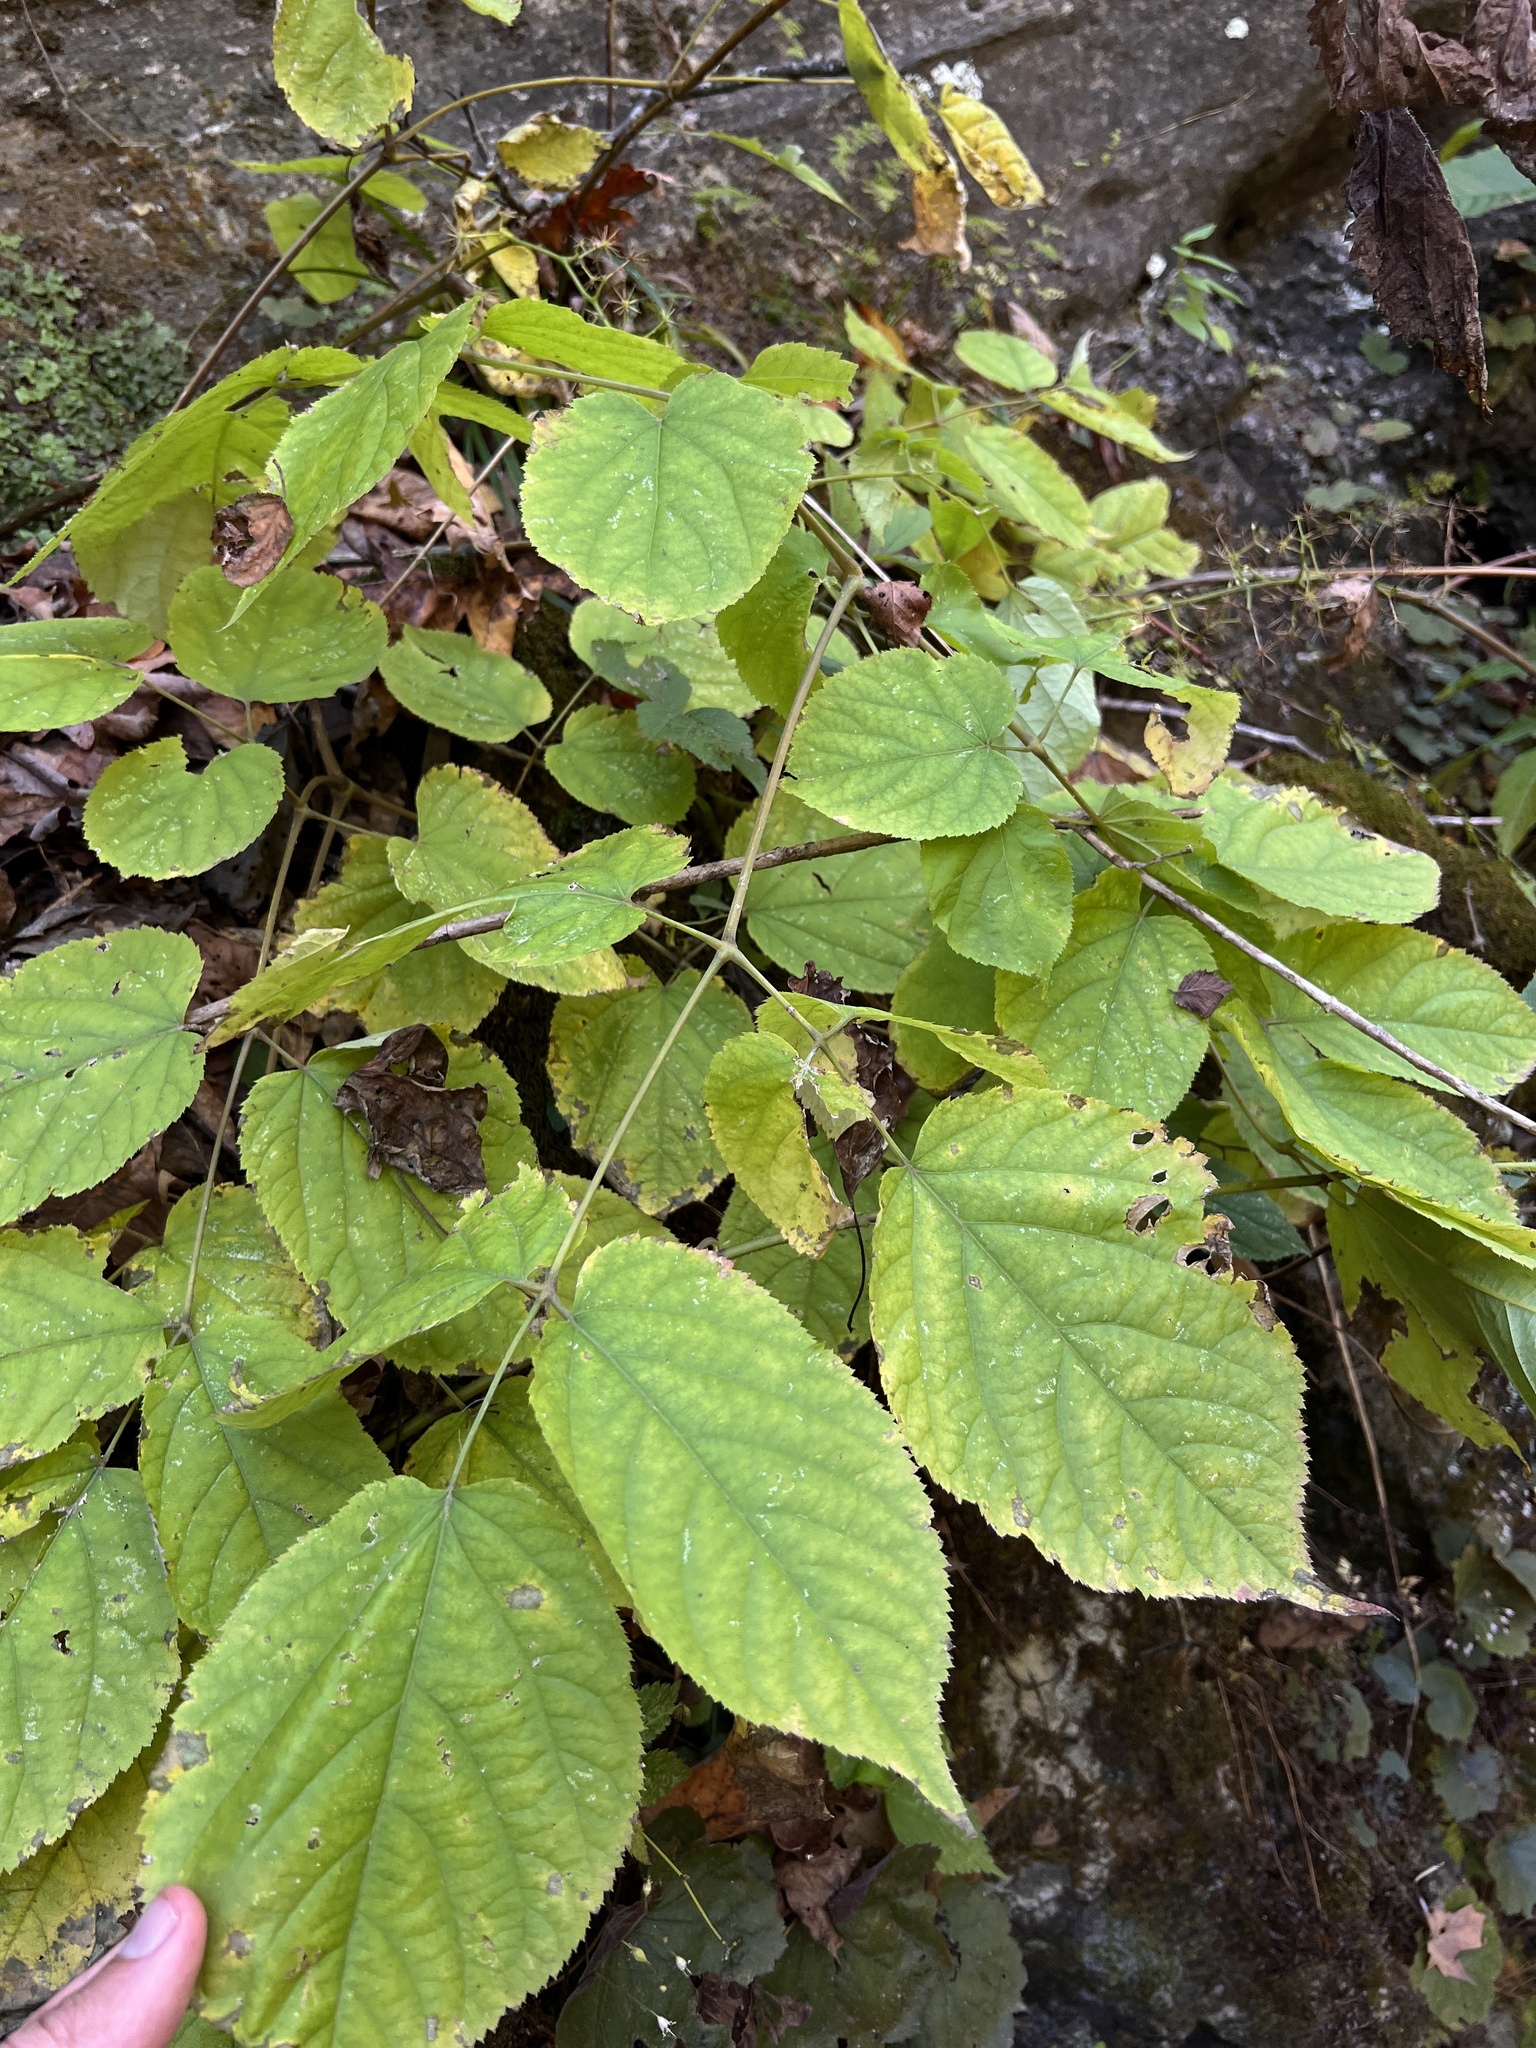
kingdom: Plantae
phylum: Tracheophyta
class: Magnoliopsida
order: Apiales
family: Araliaceae
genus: Aralia
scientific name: Aralia racemosa
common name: American-spikenard
